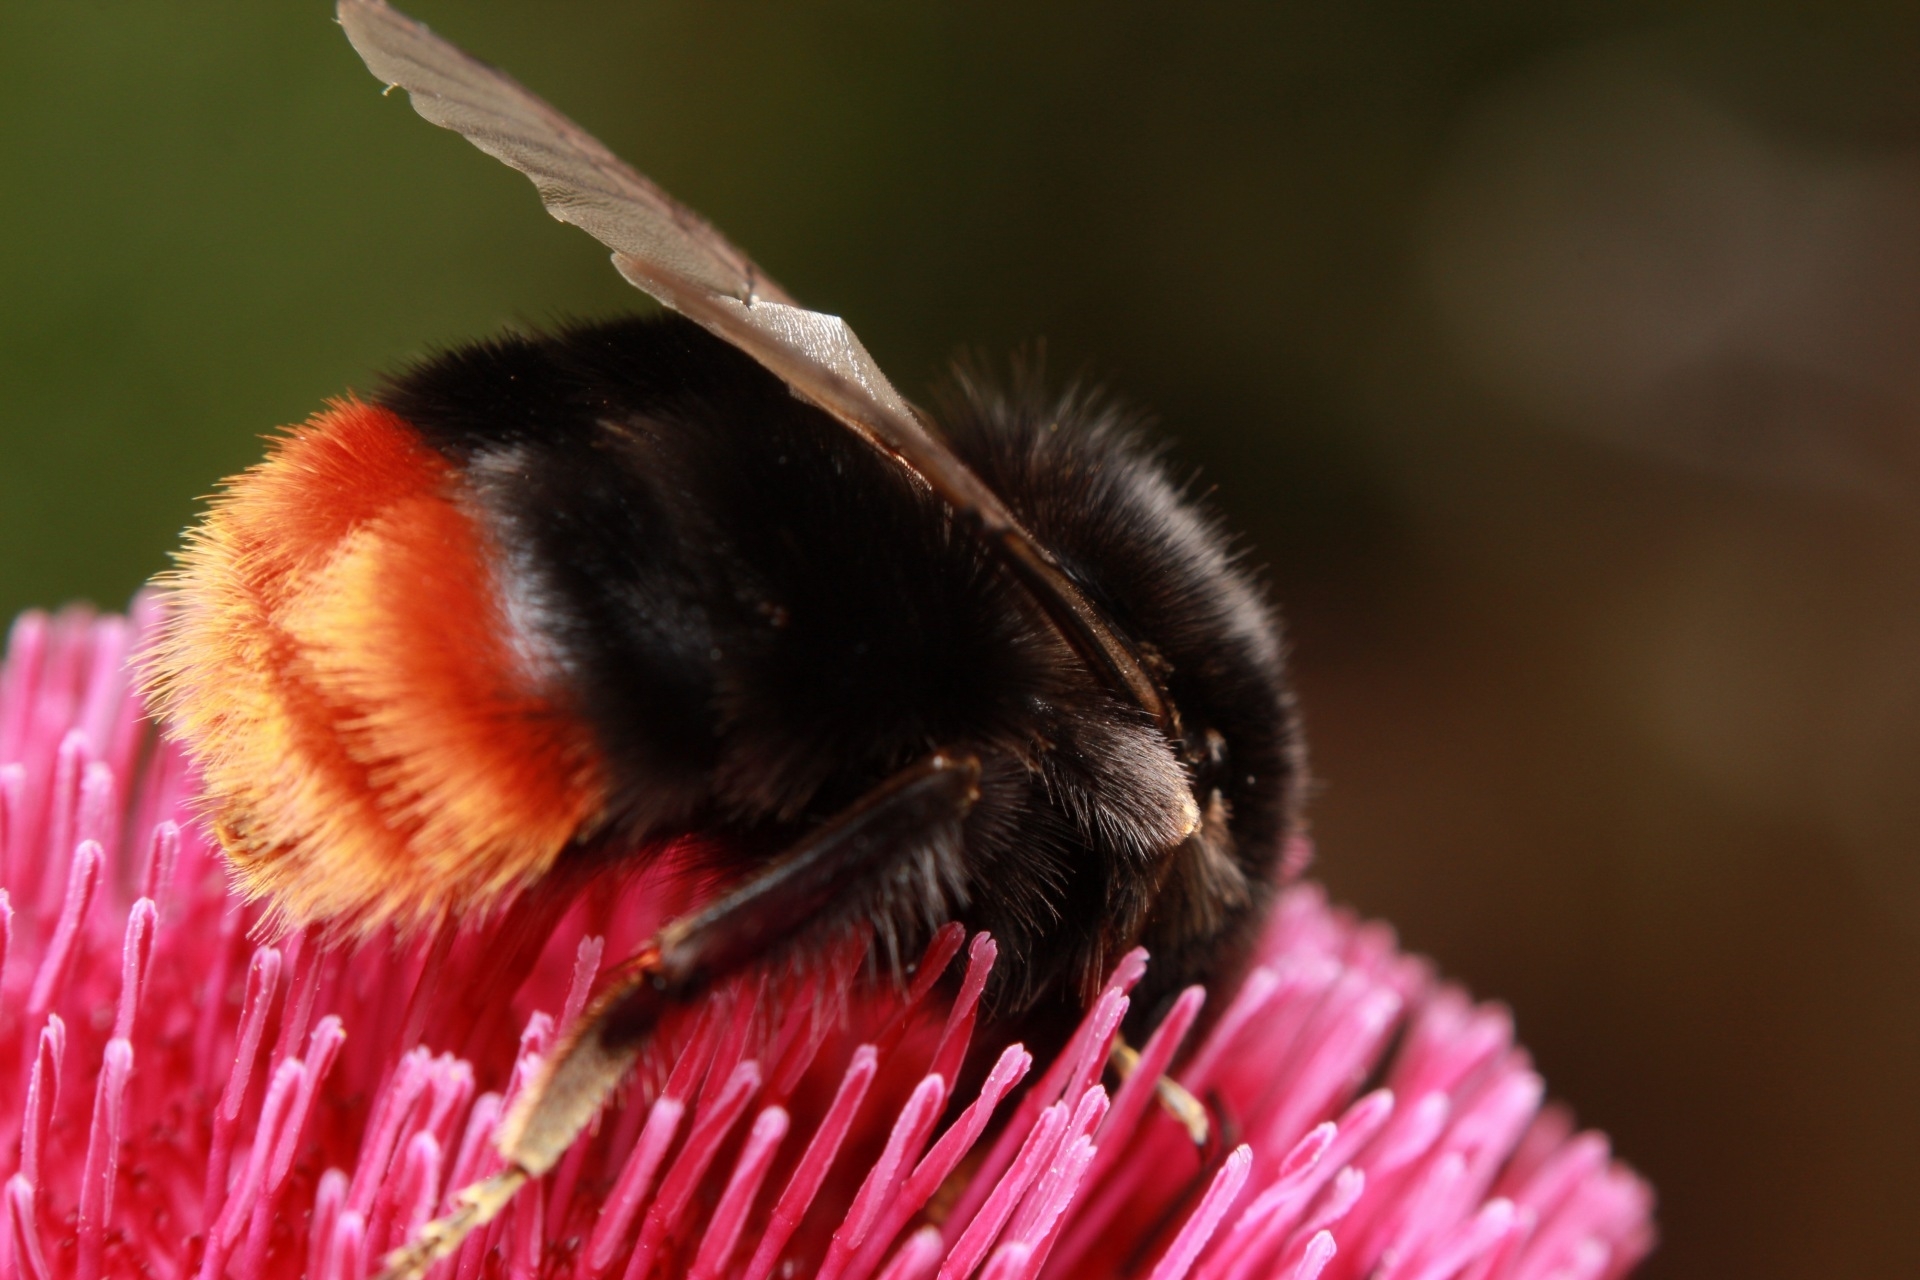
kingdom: Animalia
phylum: Arthropoda
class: Insecta
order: Hymenoptera
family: Apidae
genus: Bombus
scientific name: Bombus lapidarius
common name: Large red-tailed humble-bee
